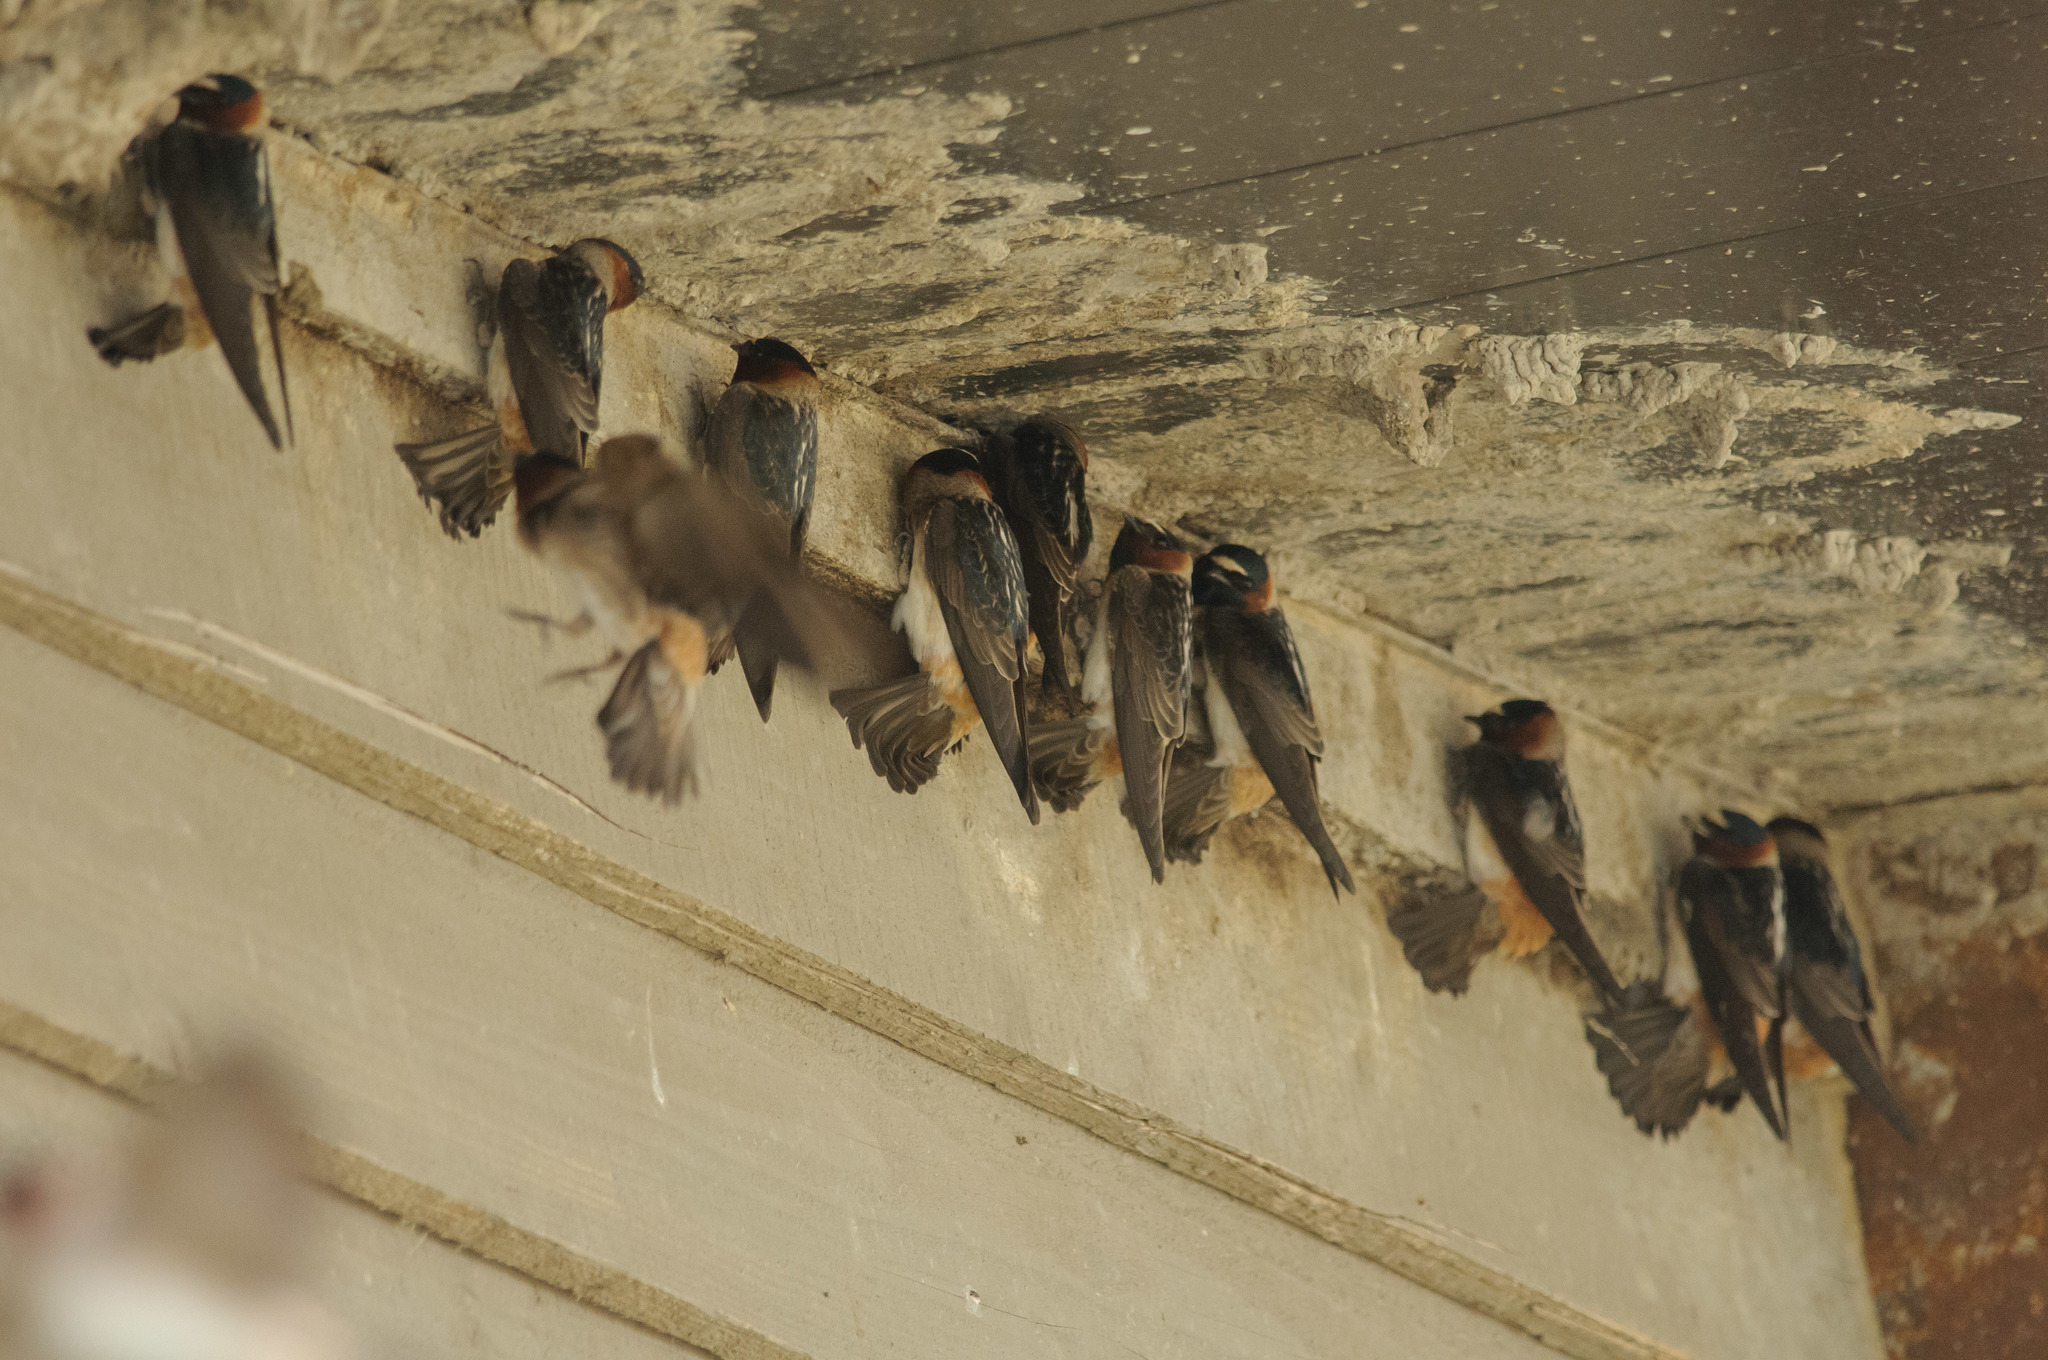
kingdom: Animalia
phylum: Chordata
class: Aves
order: Passeriformes
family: Hirundinidae
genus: Petrochelidon
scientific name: Petrochelidon pyrrhonota
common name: American cliff swallow
